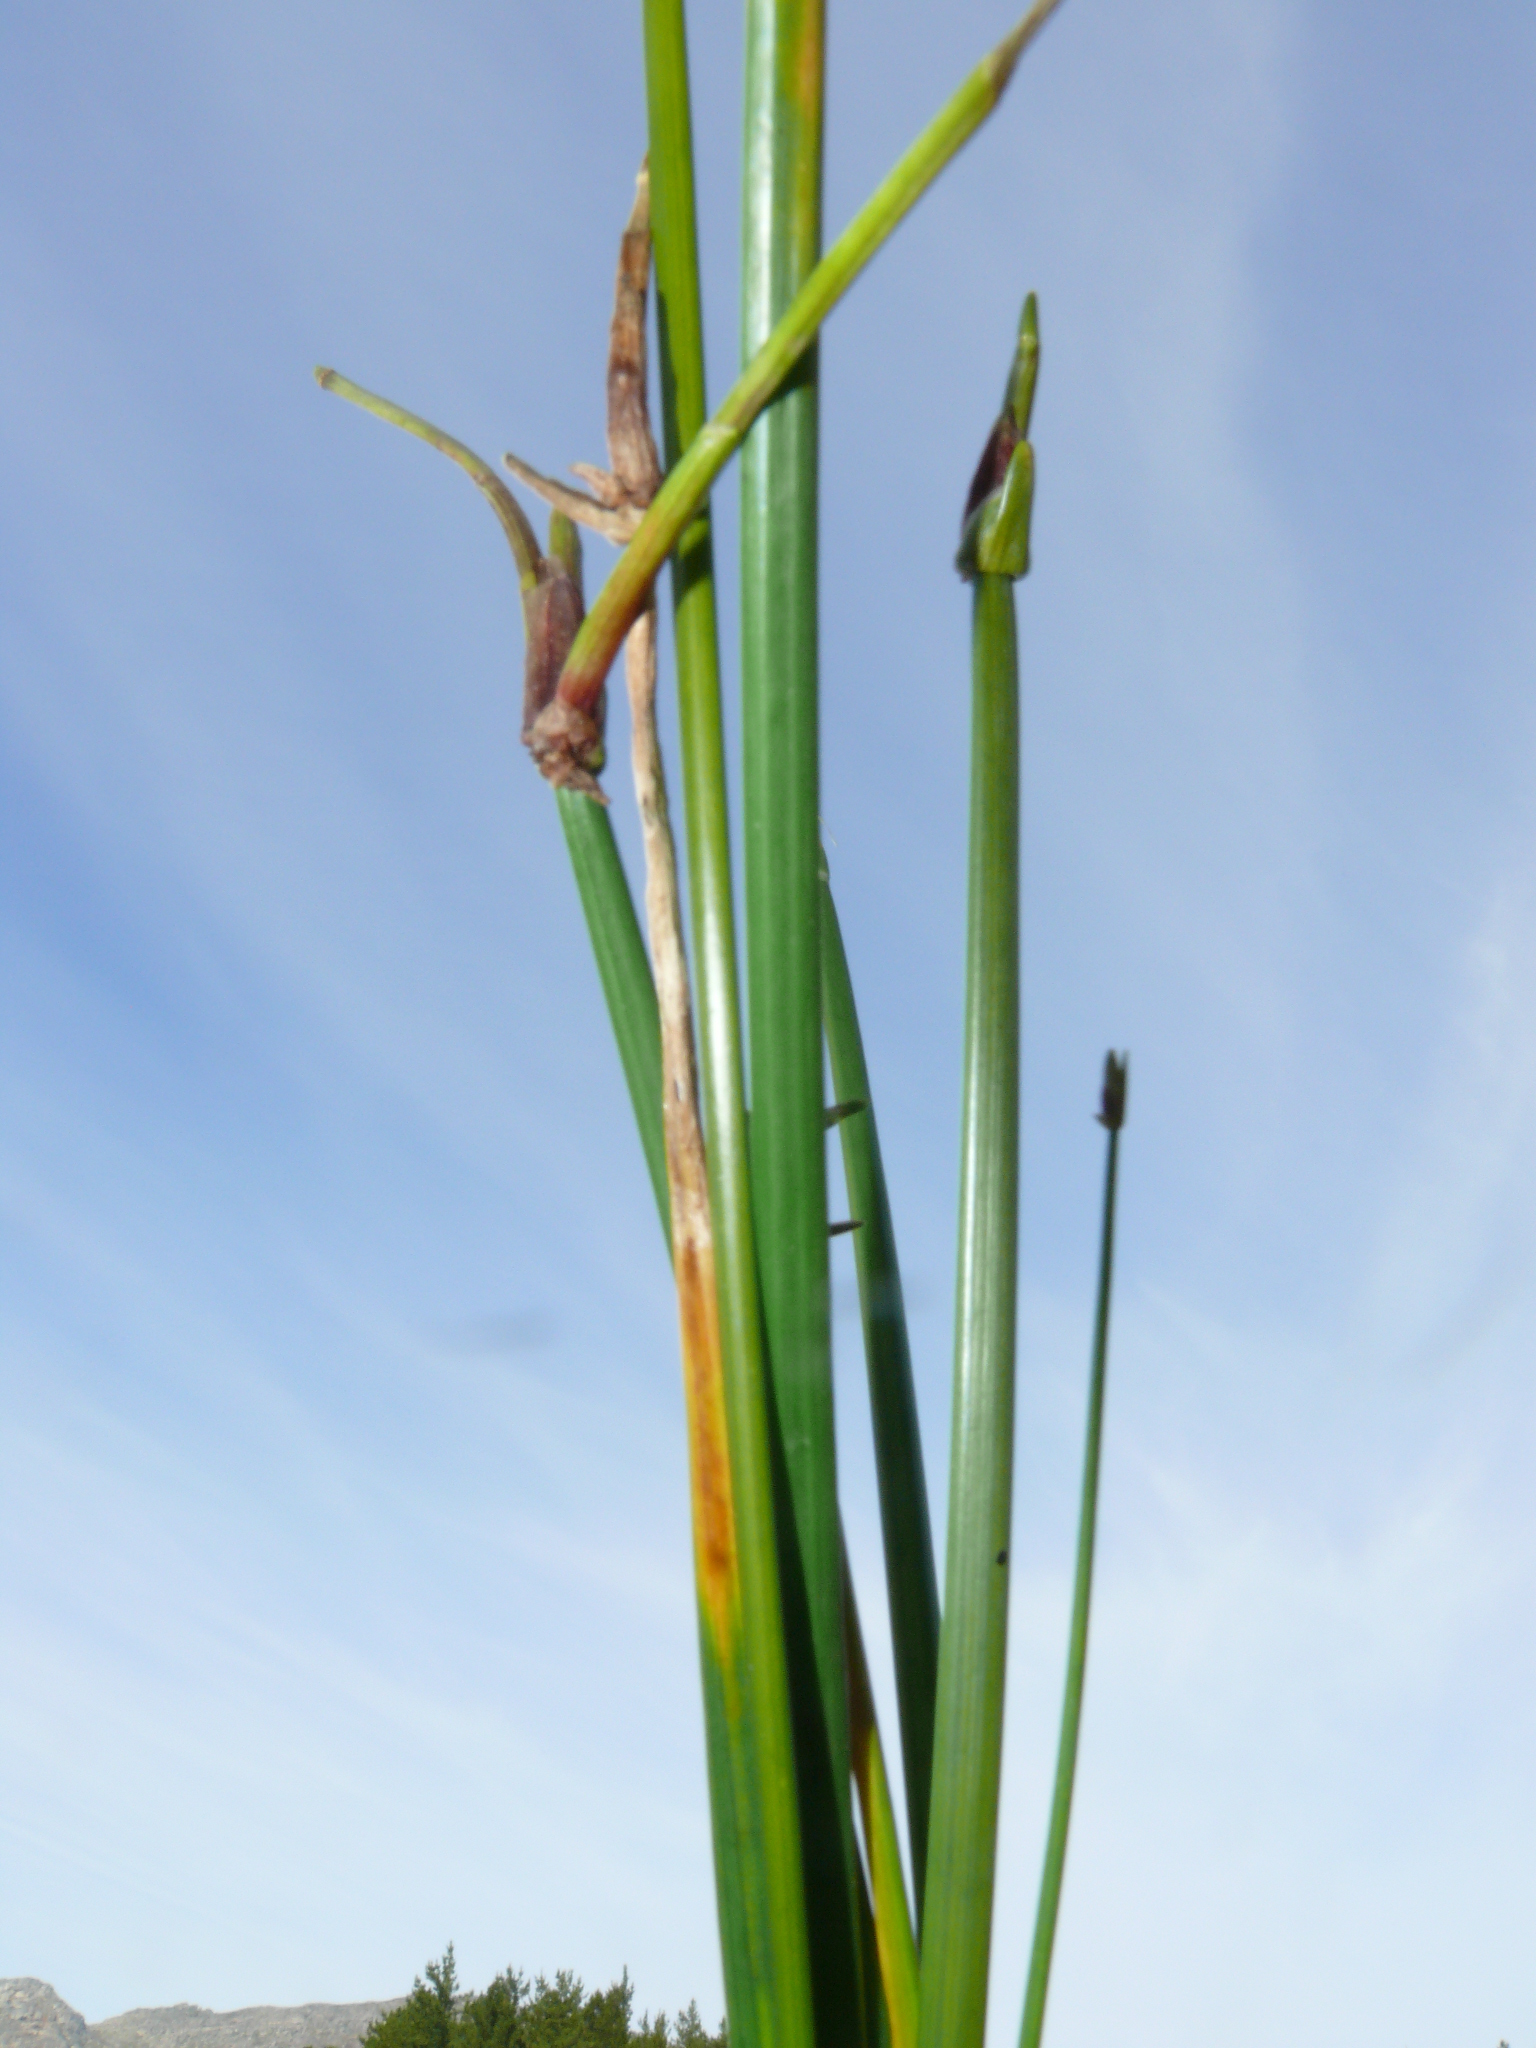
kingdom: Plantae
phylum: Tracheophyta
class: Liliopsida
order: Poales
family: Cyperaceae
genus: Isolepis
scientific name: Isolepis prolifera
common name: Proliferating bulrush
